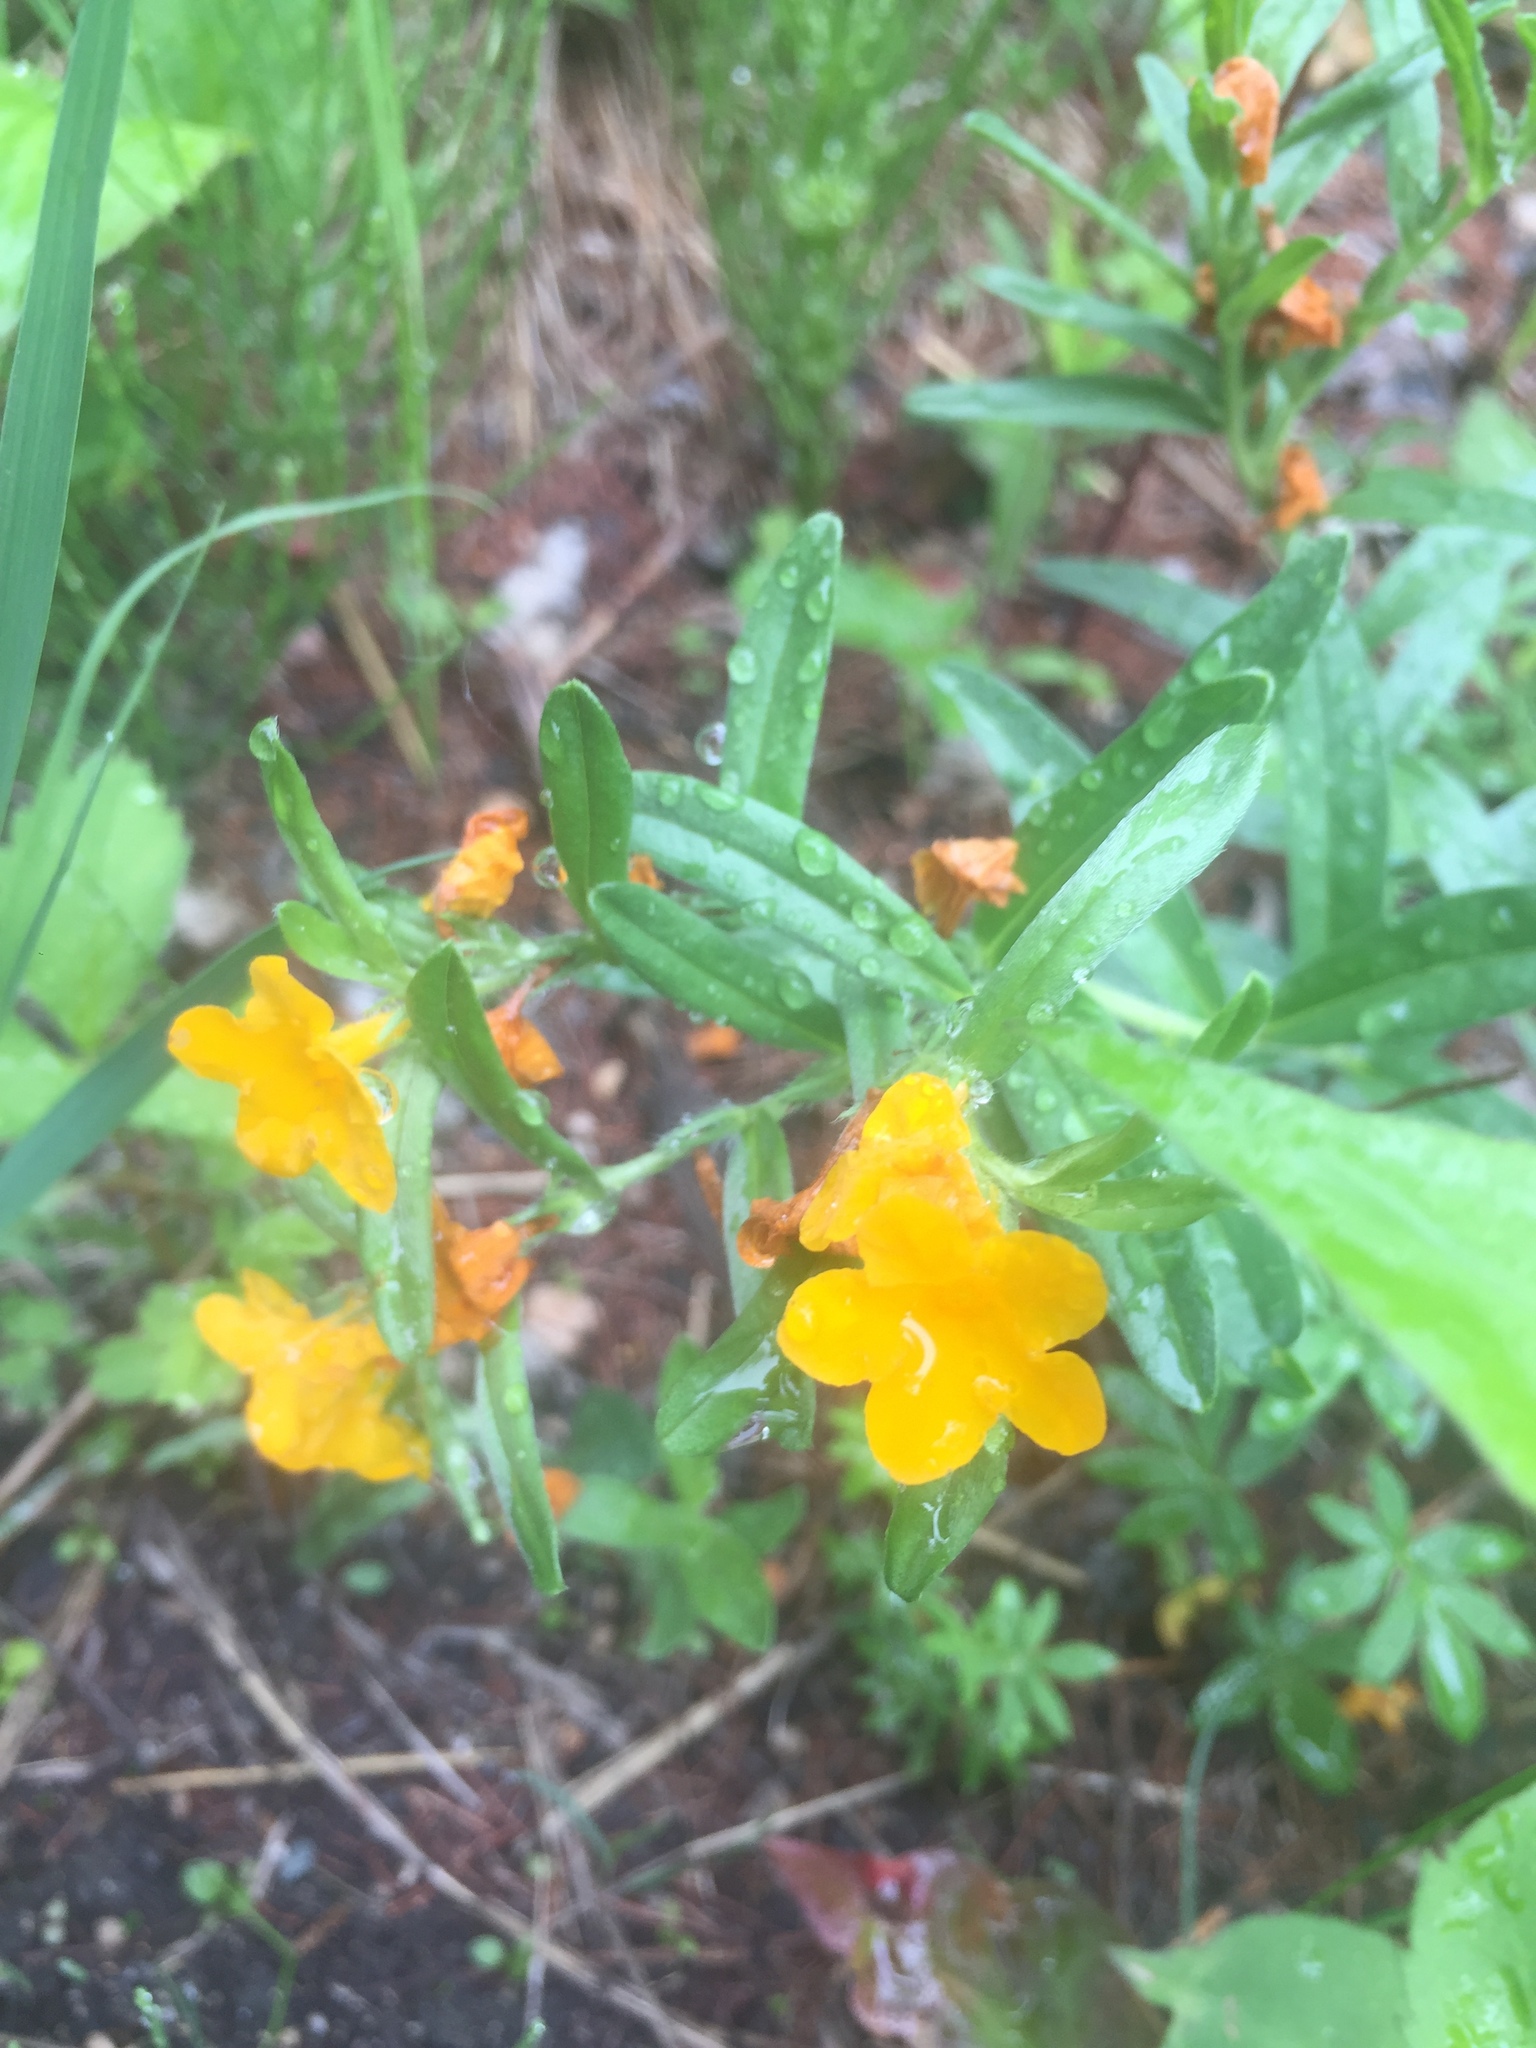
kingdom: Plantae
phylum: Tracheophyta
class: Magnoliopsida
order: Boraginales
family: Boraginaceae
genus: Lithospermum
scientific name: Lithospermum canescens
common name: Hoary puccoon
